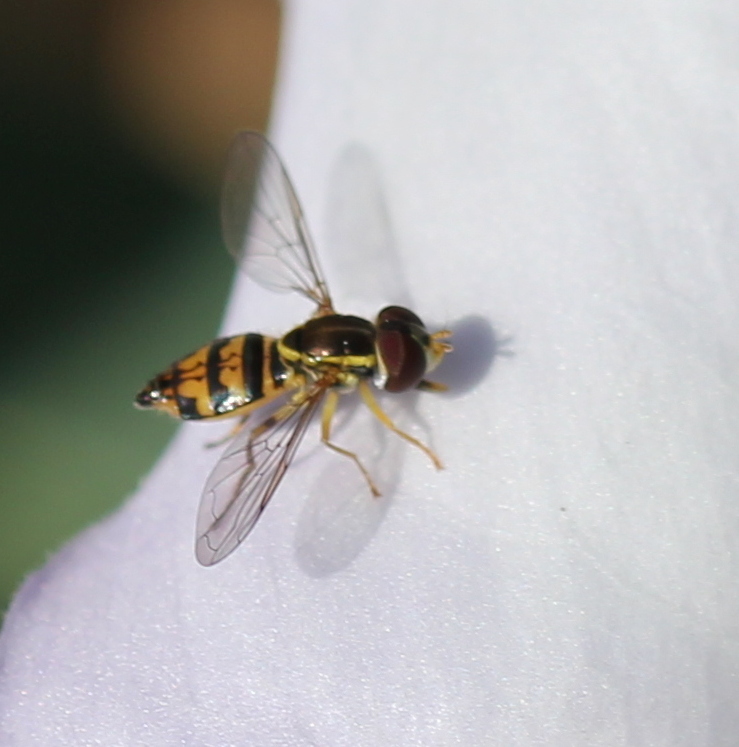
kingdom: Animalia
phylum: Arthropoda
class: Insecta
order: Diptera
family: Syrphidae
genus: Toxomerus
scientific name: Toxomerus occidentalis
